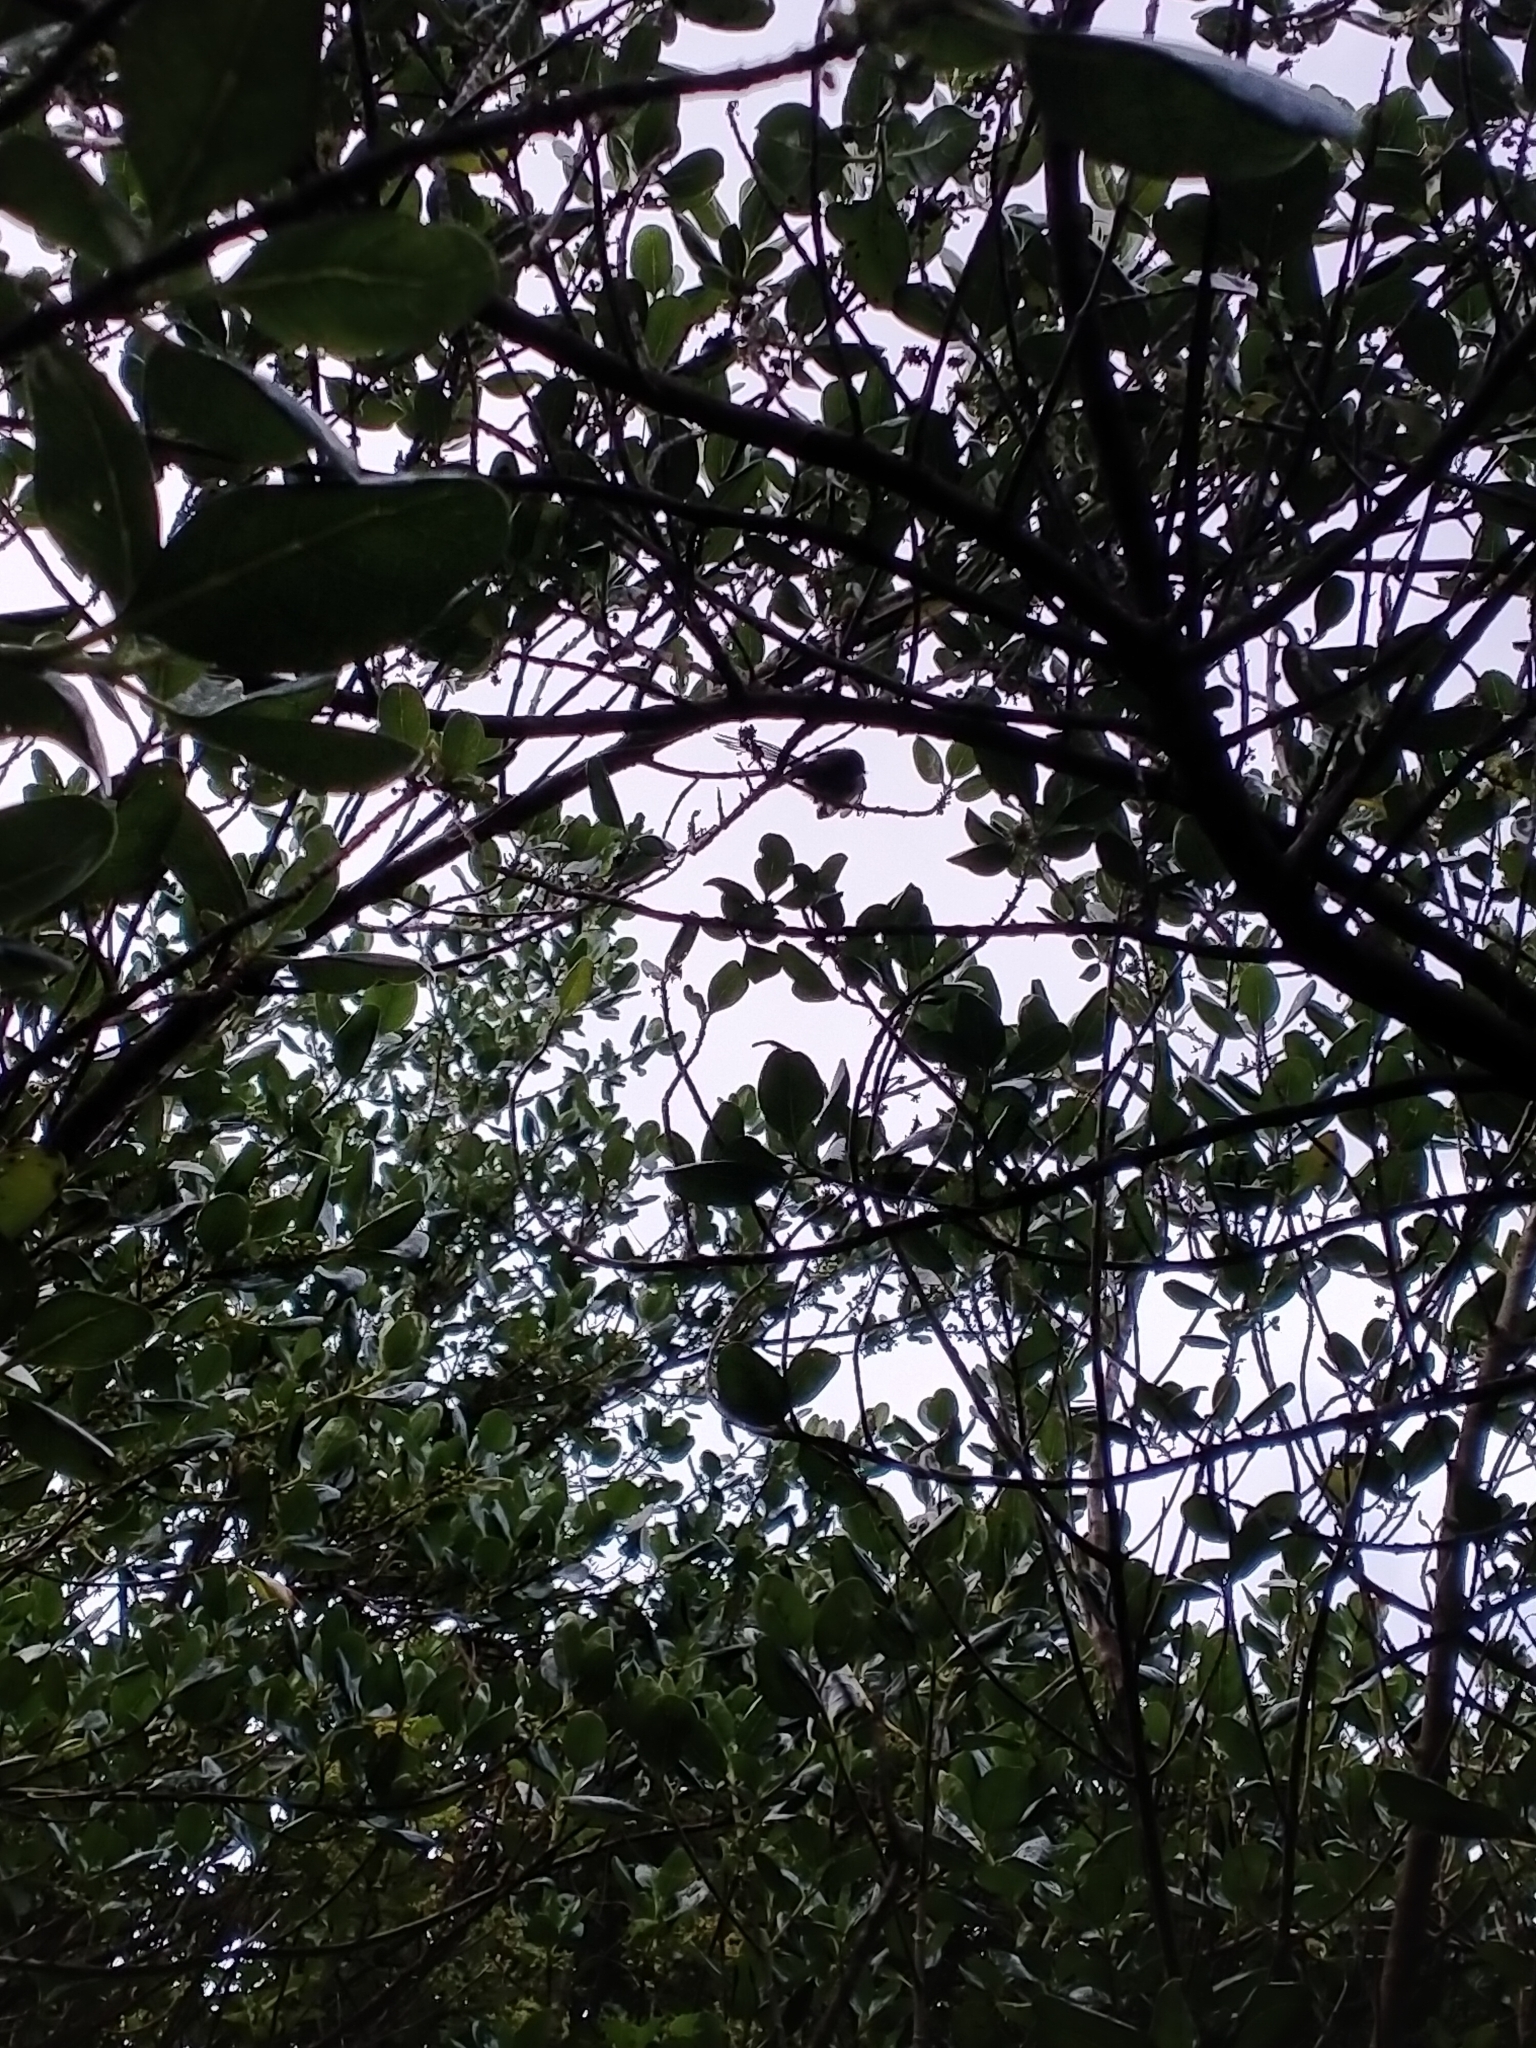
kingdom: Animalia
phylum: Chordata
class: Aves
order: Passeriformes
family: Rhipiduridae
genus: Rhipidura
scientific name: Rhipidura fuliginosa
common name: New zealand fantail
